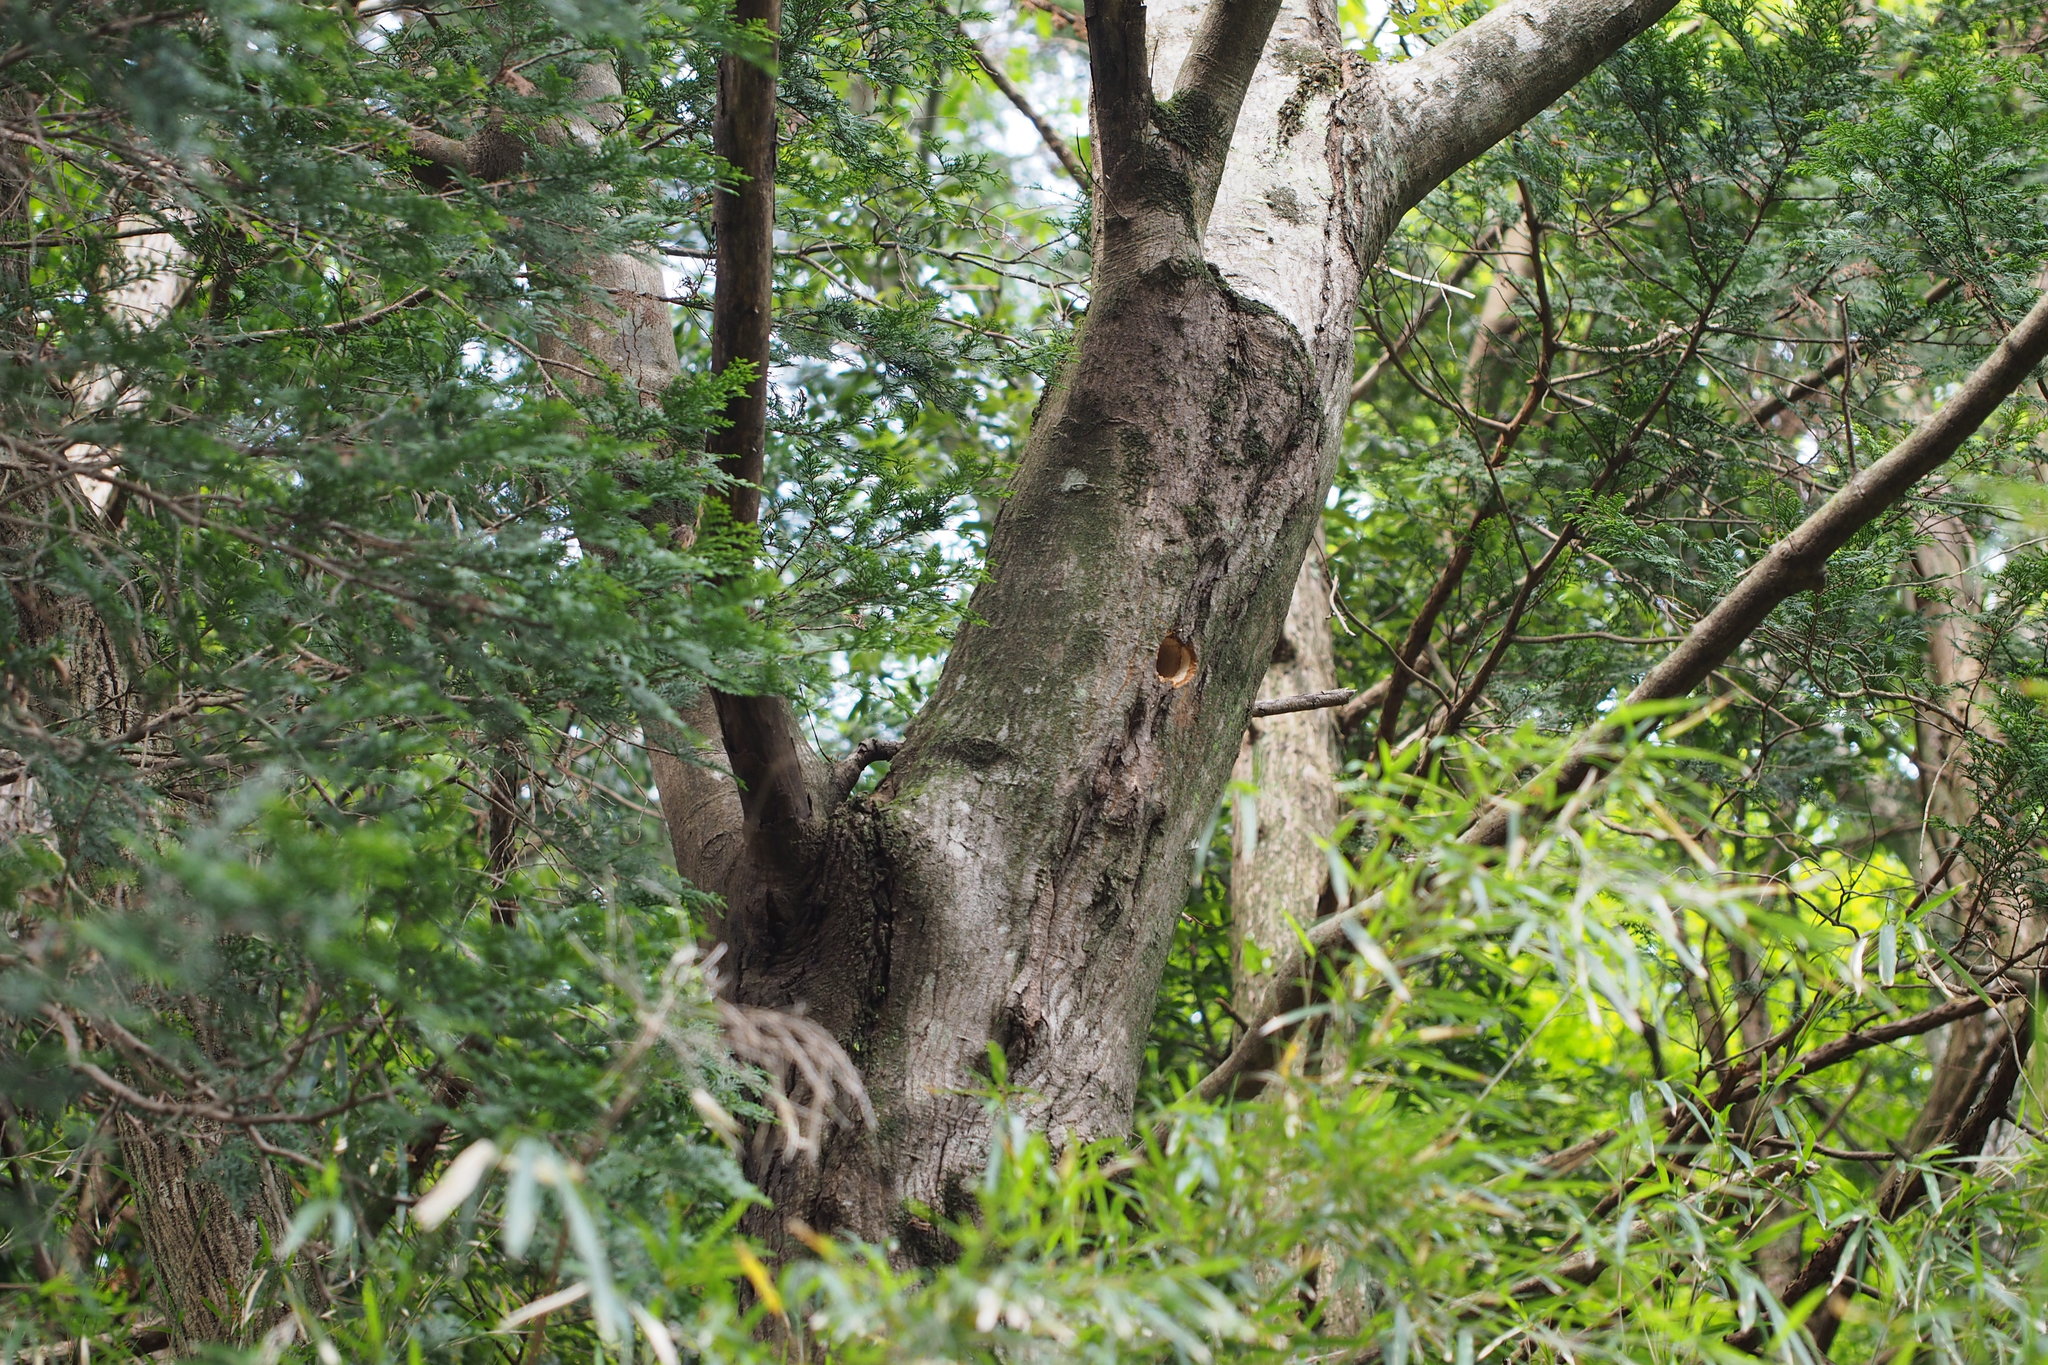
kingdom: Animalia
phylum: Chordata
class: Aves
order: Piciformes
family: Picidae
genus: Picus
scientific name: Picus awokera
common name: Japanese green woodpecker
